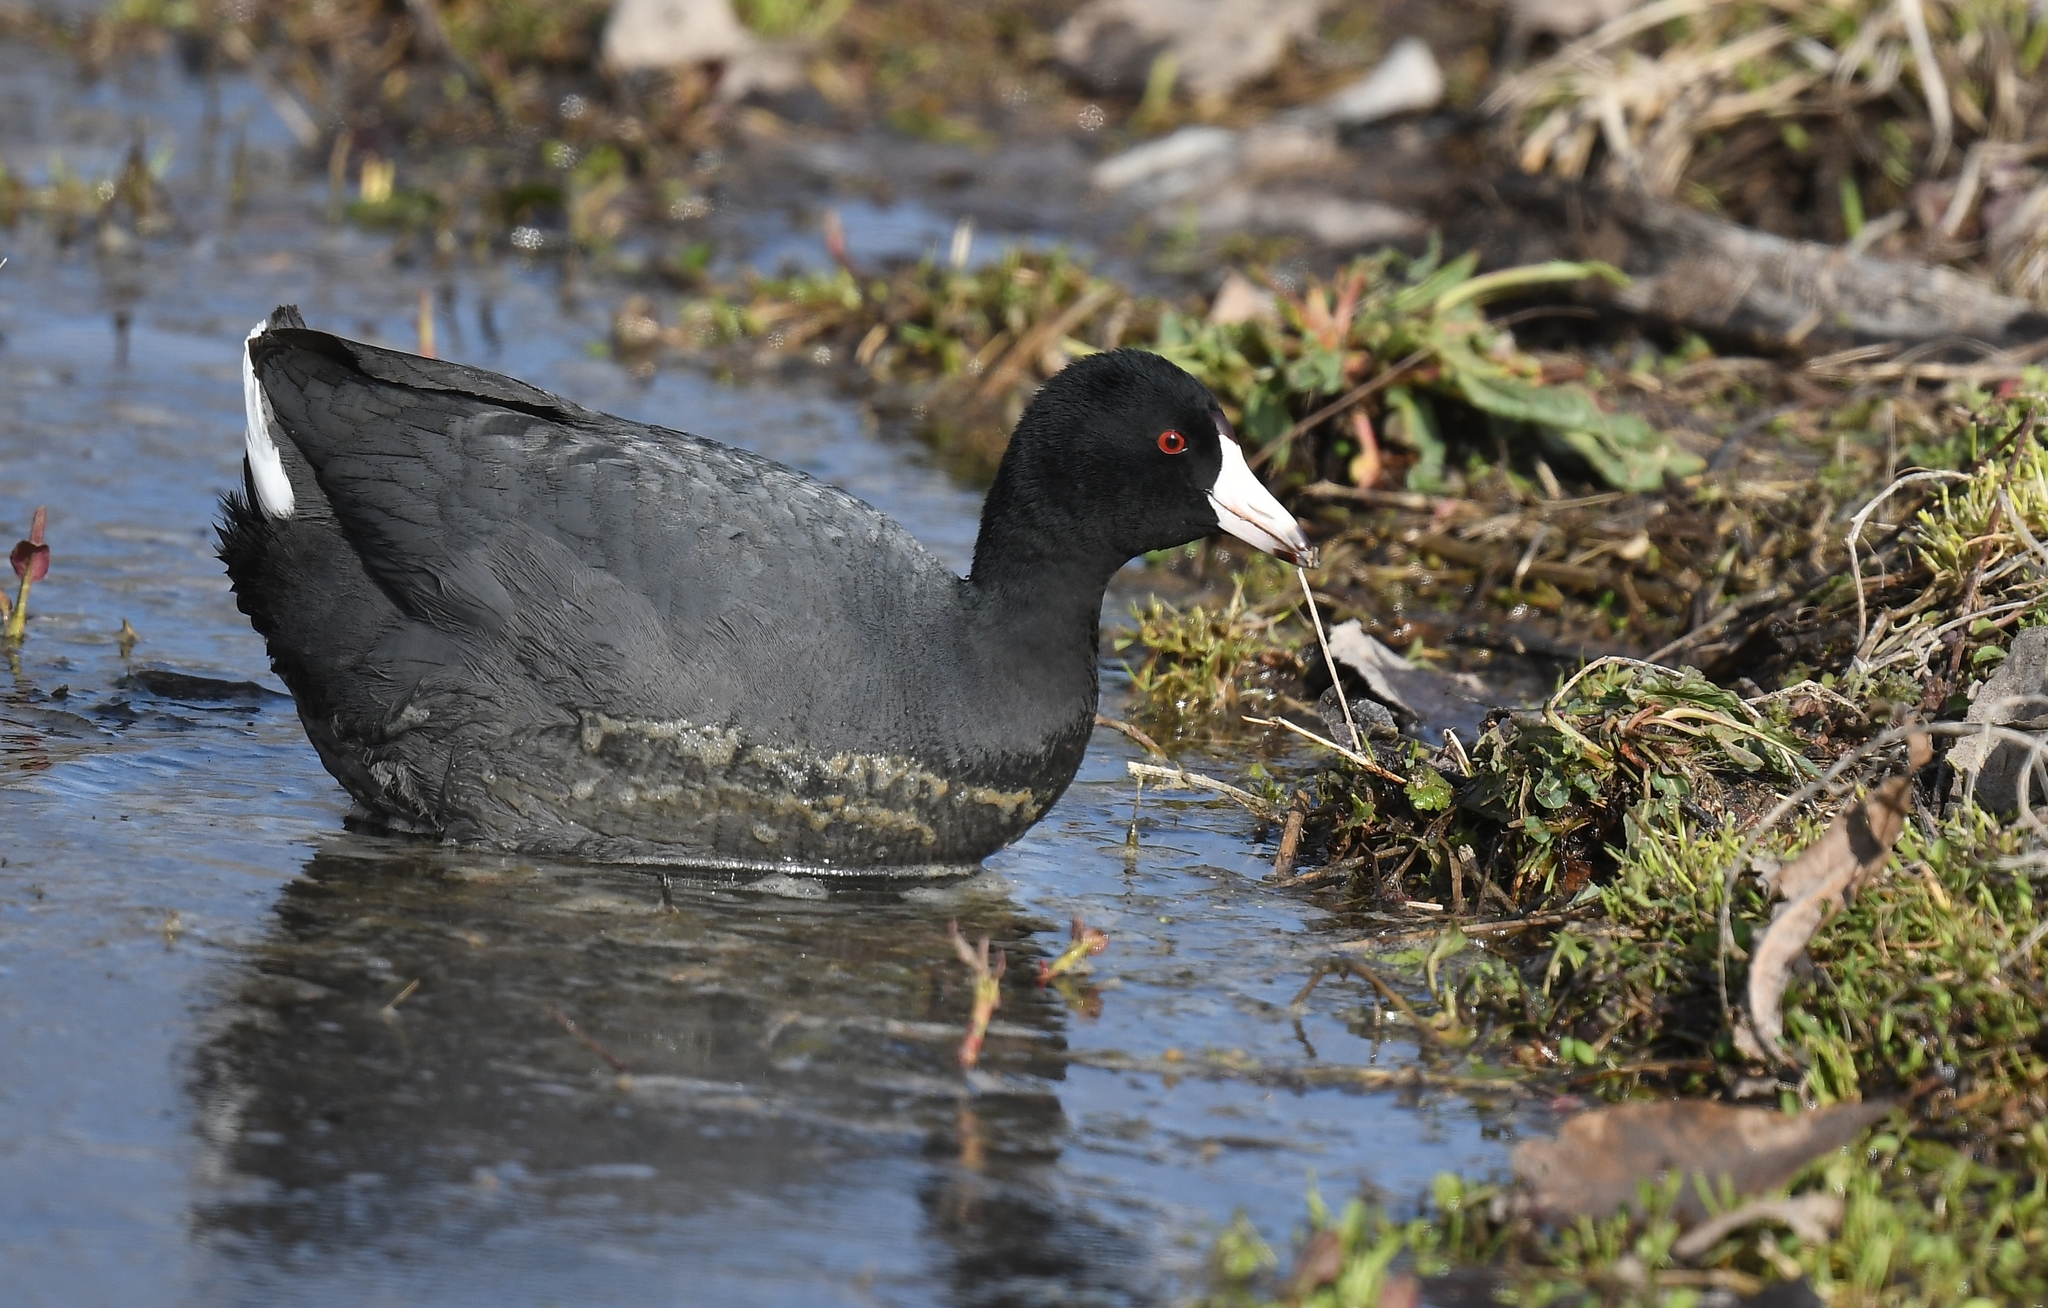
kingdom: Animalia
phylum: Chordata
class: Aves
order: Gruiformes
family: Rallidae
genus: Fulica
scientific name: Fulica americana
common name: American coot
